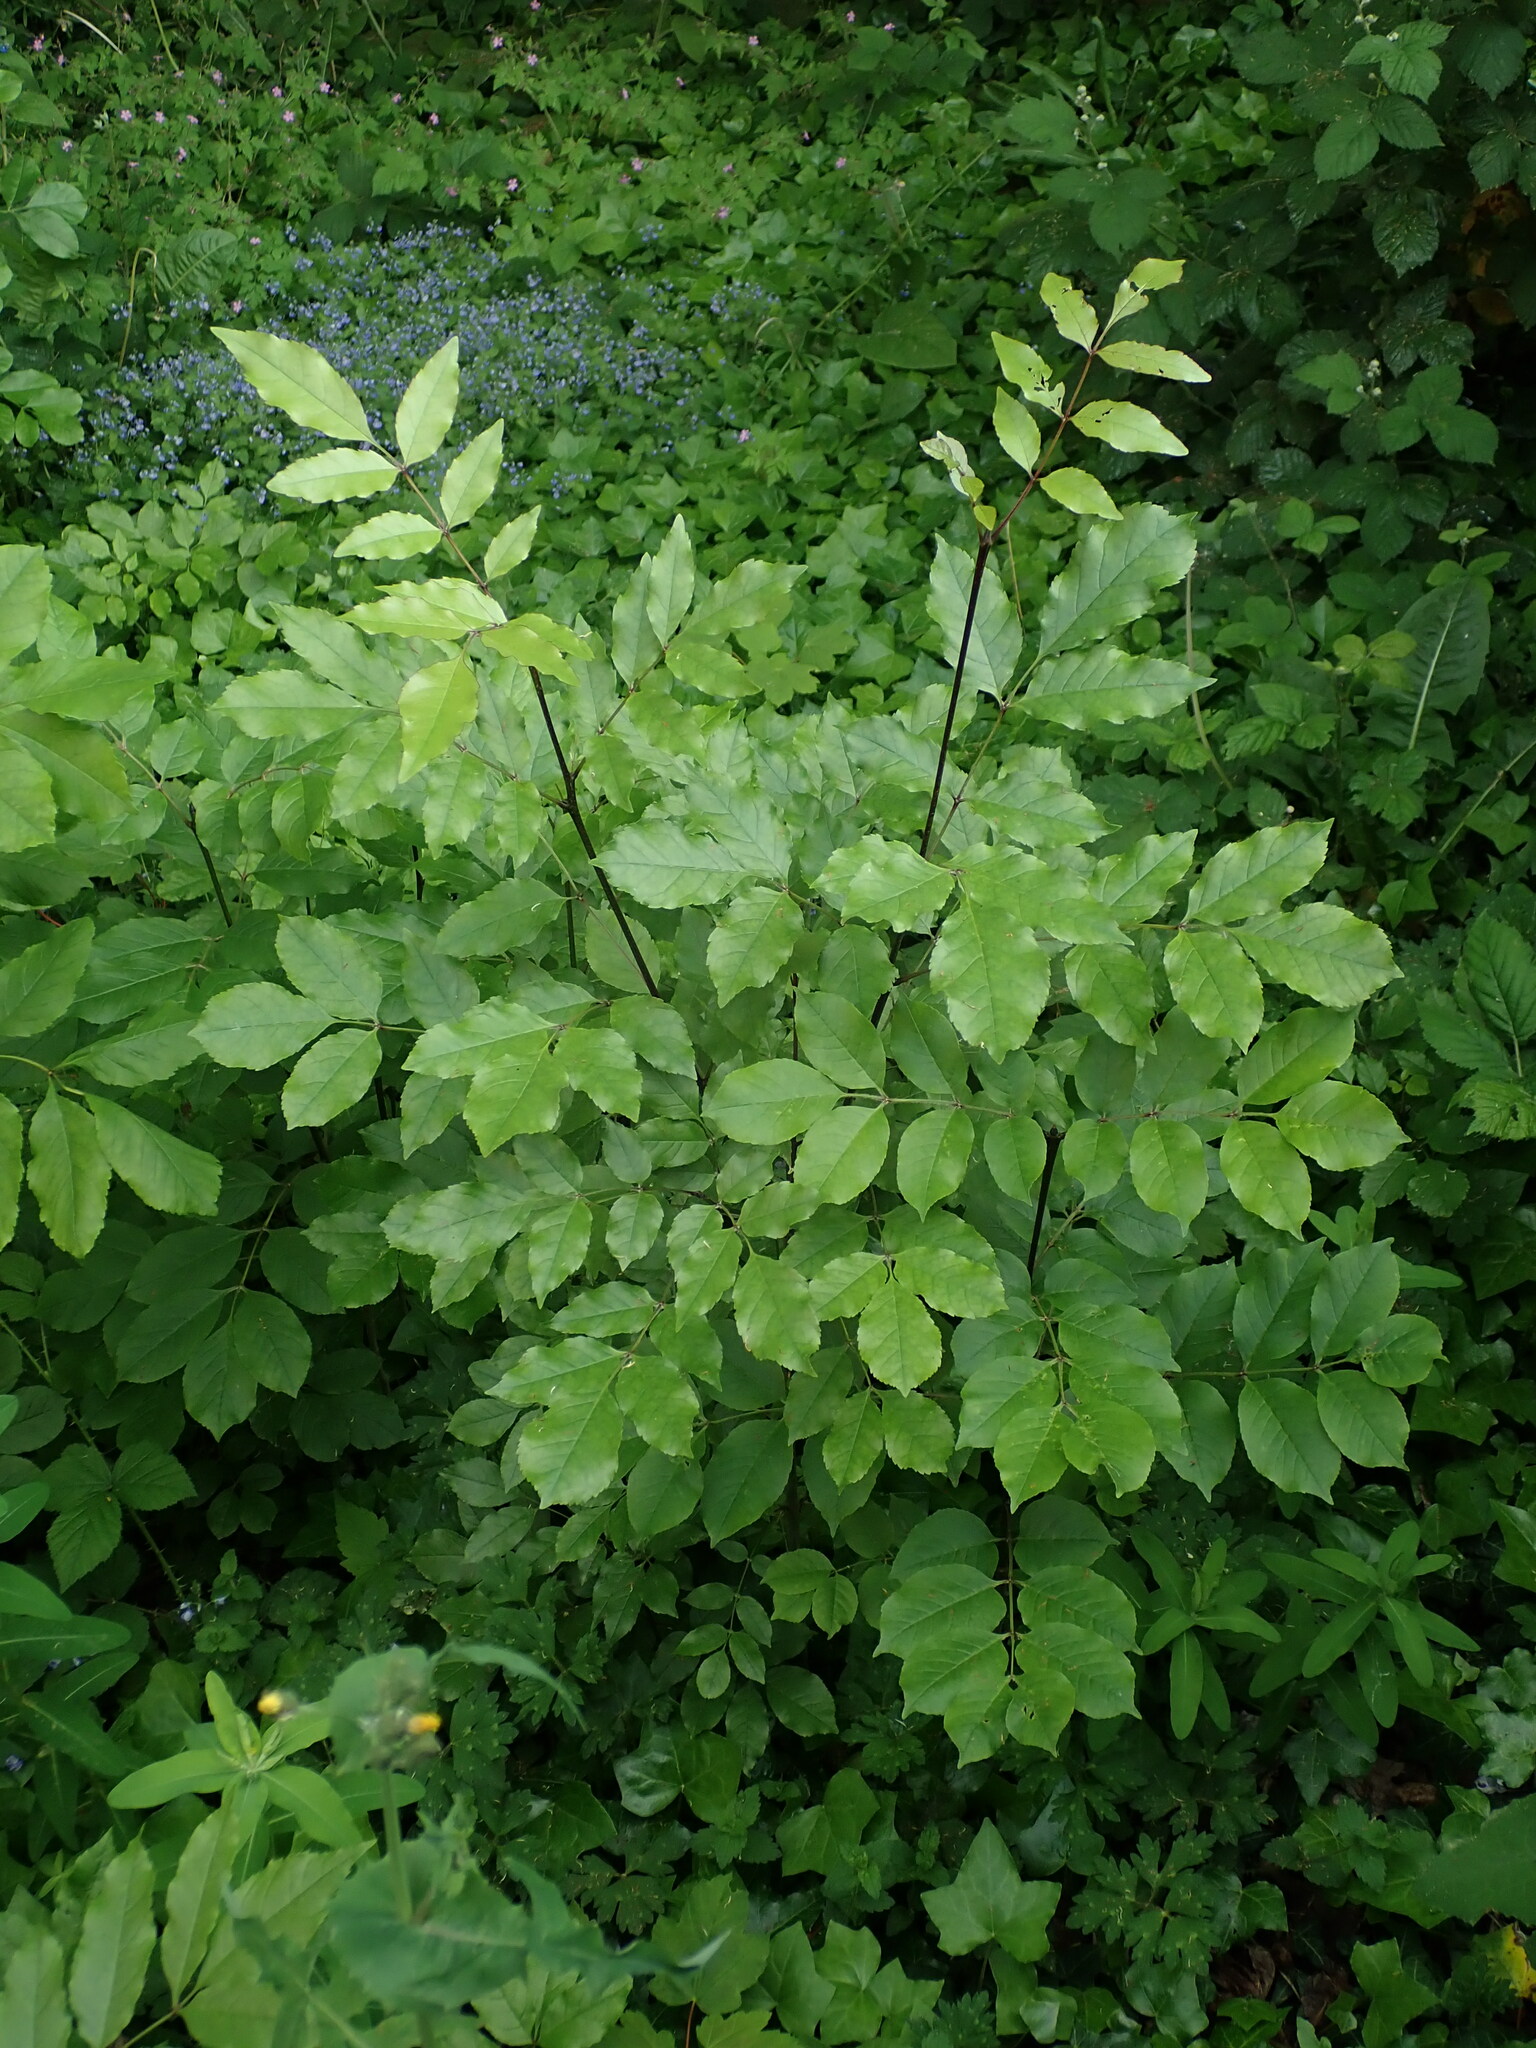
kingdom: Plantae
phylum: Tracheophyta
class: Magnoliopsida
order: Lamiales
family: Oleaceae
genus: Fraxinus
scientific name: Fraxinus ornus
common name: Manna ash
